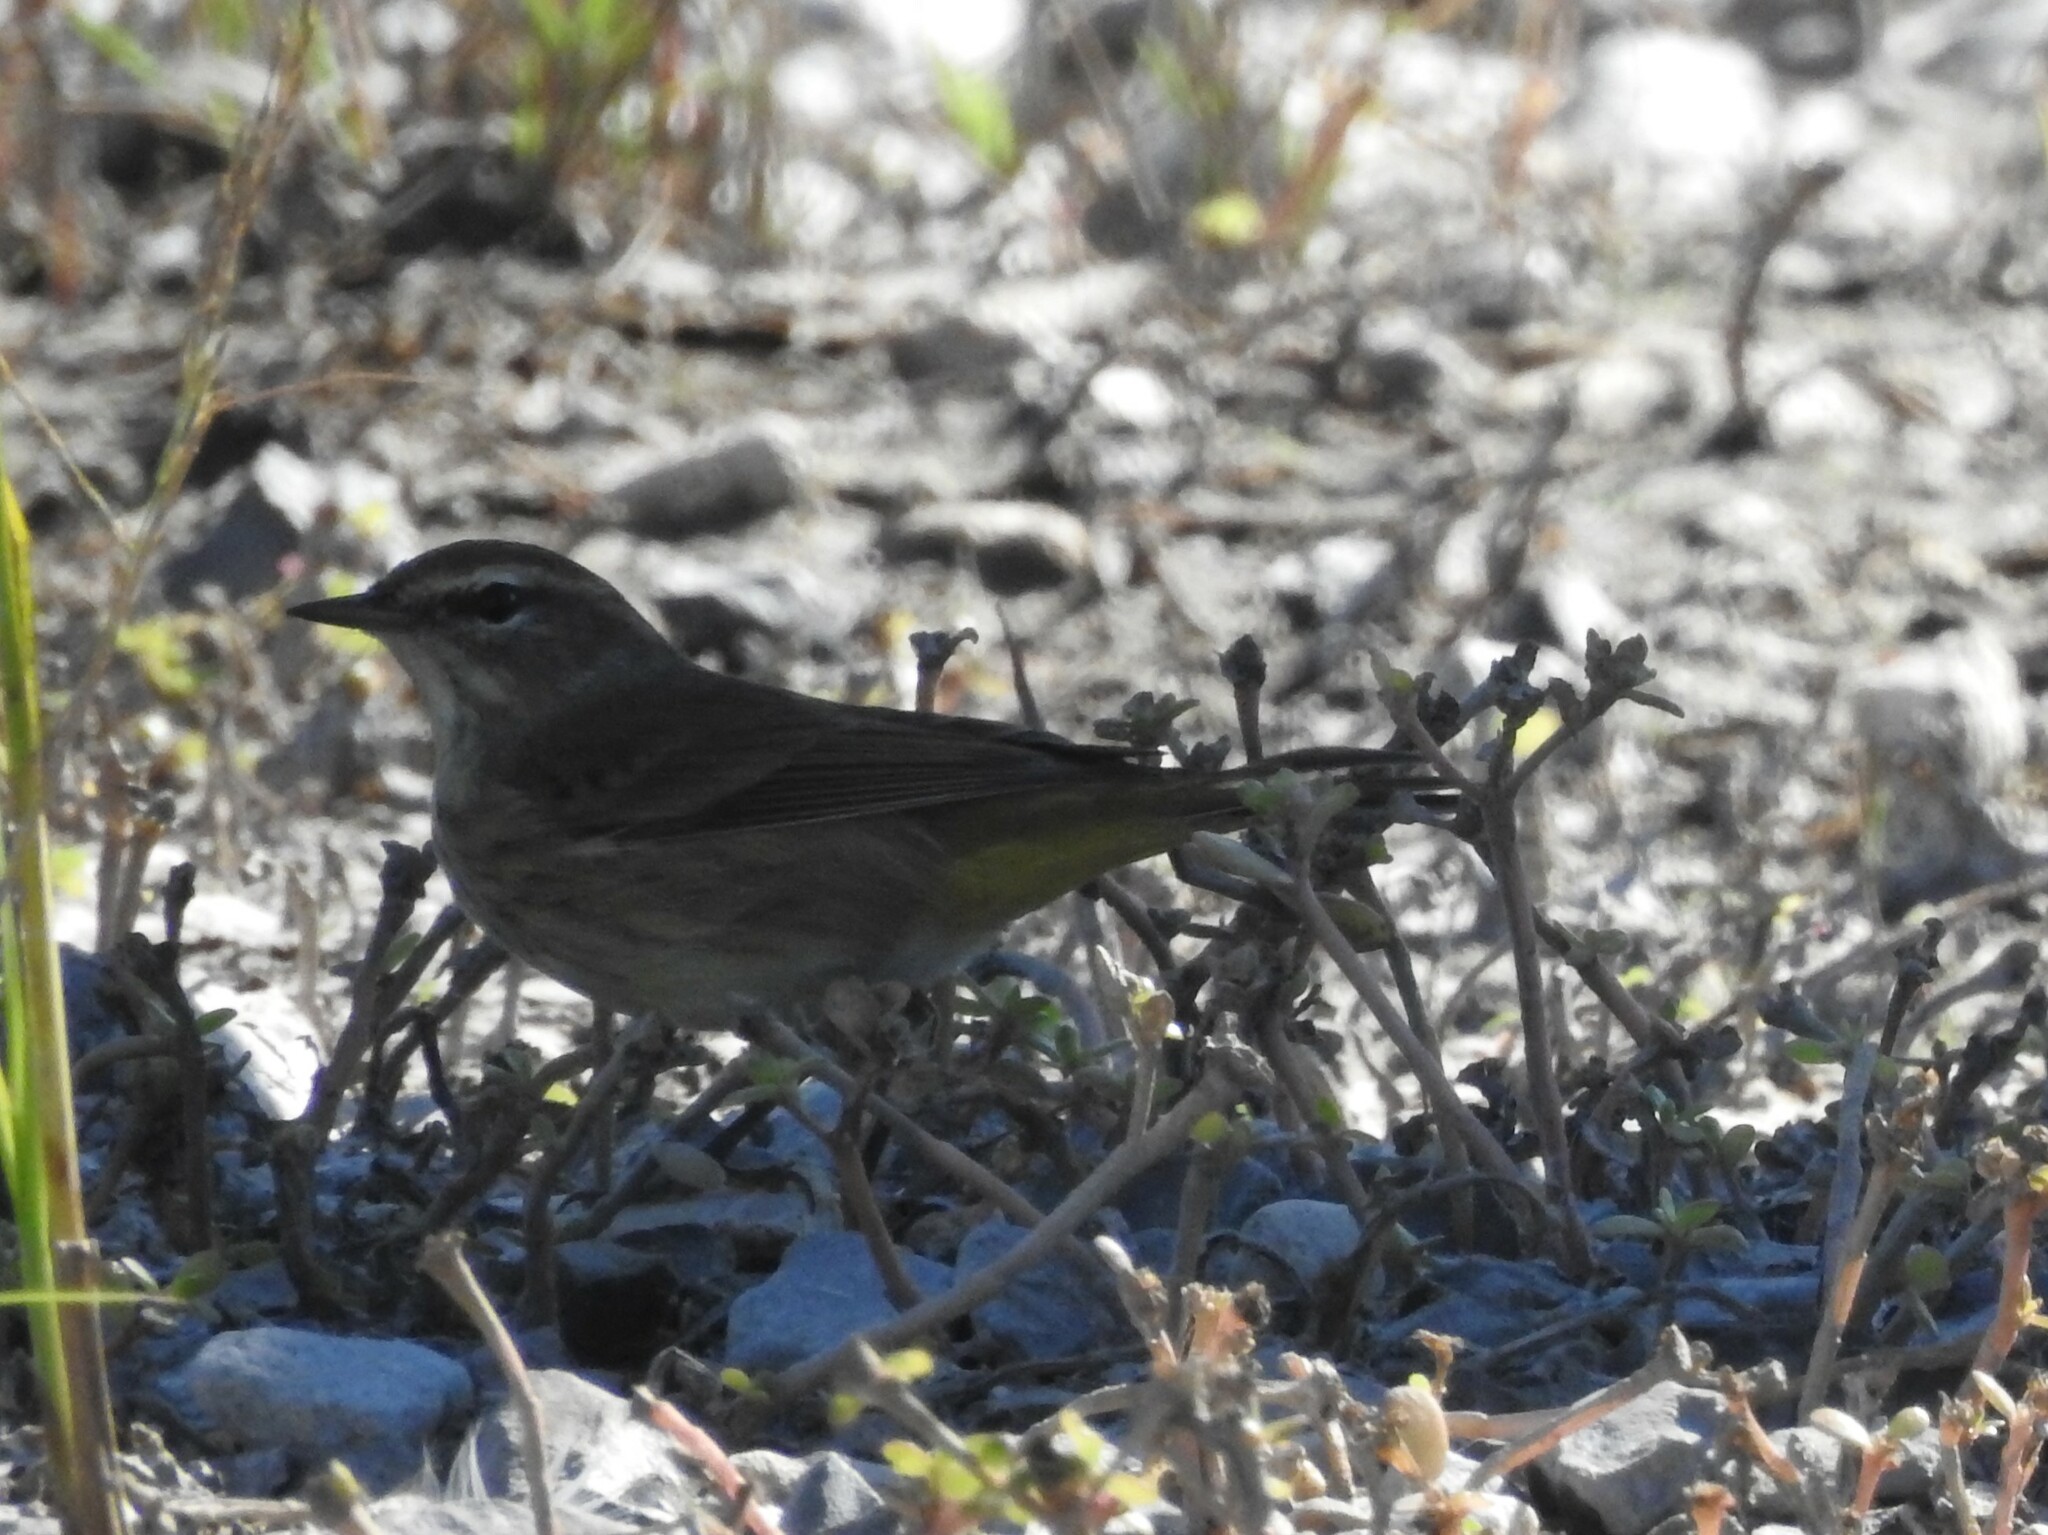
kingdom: Animalia
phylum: Chordata
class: Aves
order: Passeriformes
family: Parulidae
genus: Setophaga
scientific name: Setophaga palmarum
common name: Palm warbler
